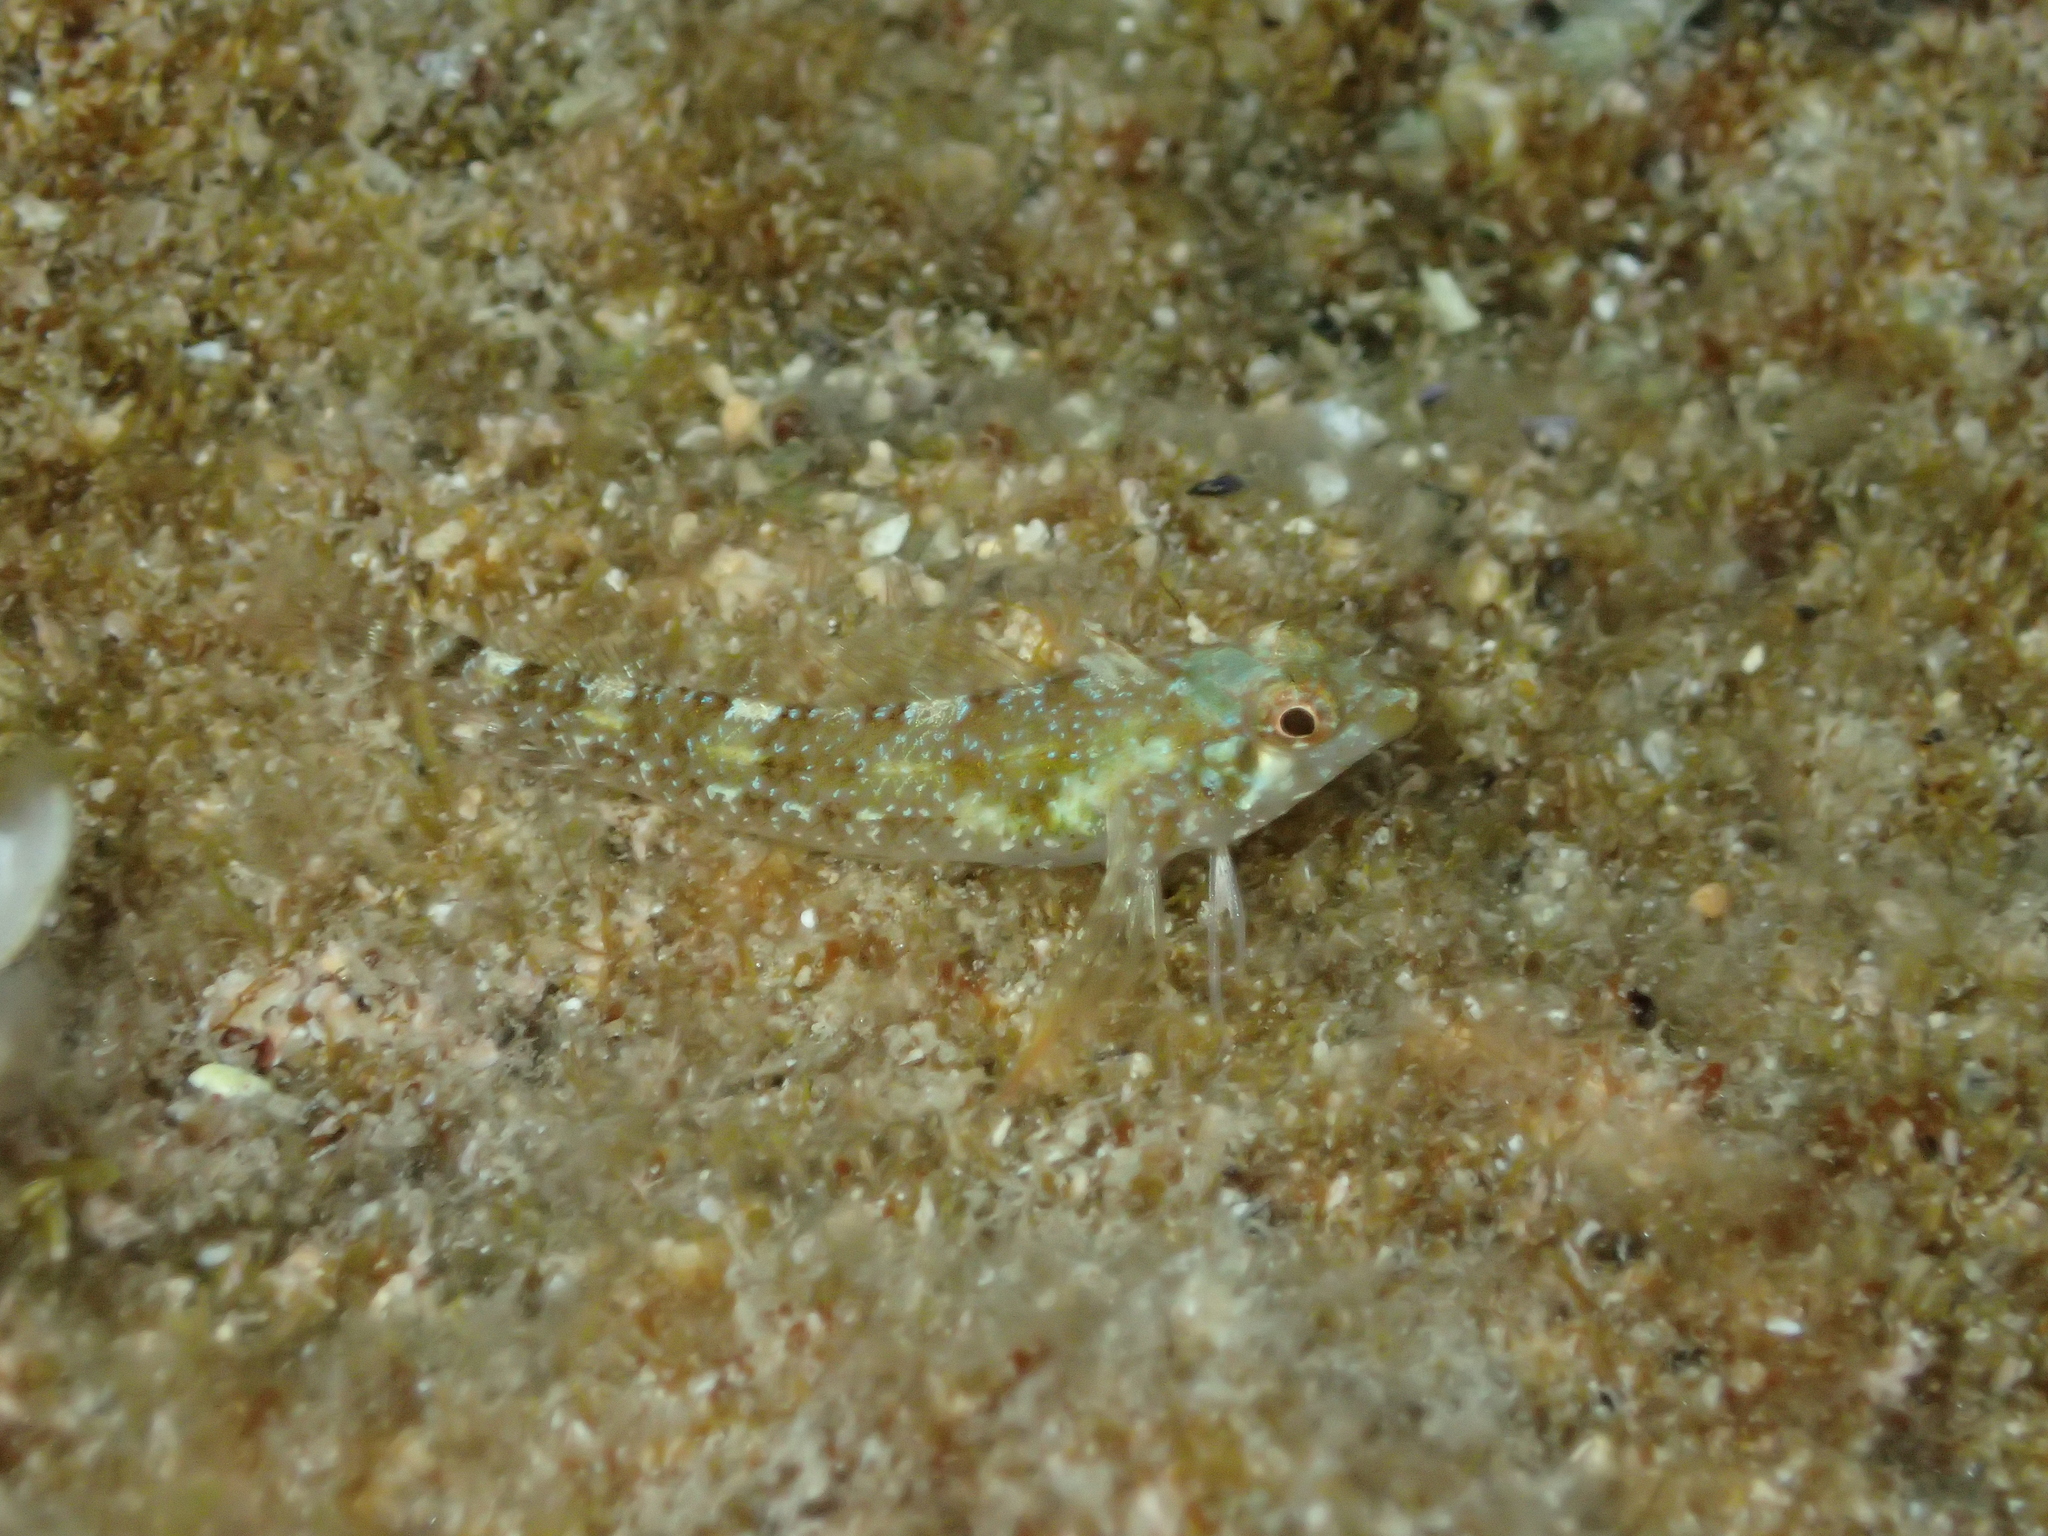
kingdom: Animalia
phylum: Chordata
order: Perciformes
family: Tripterygiidae
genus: Tripterygion
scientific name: Tripterygion tripteronotum
